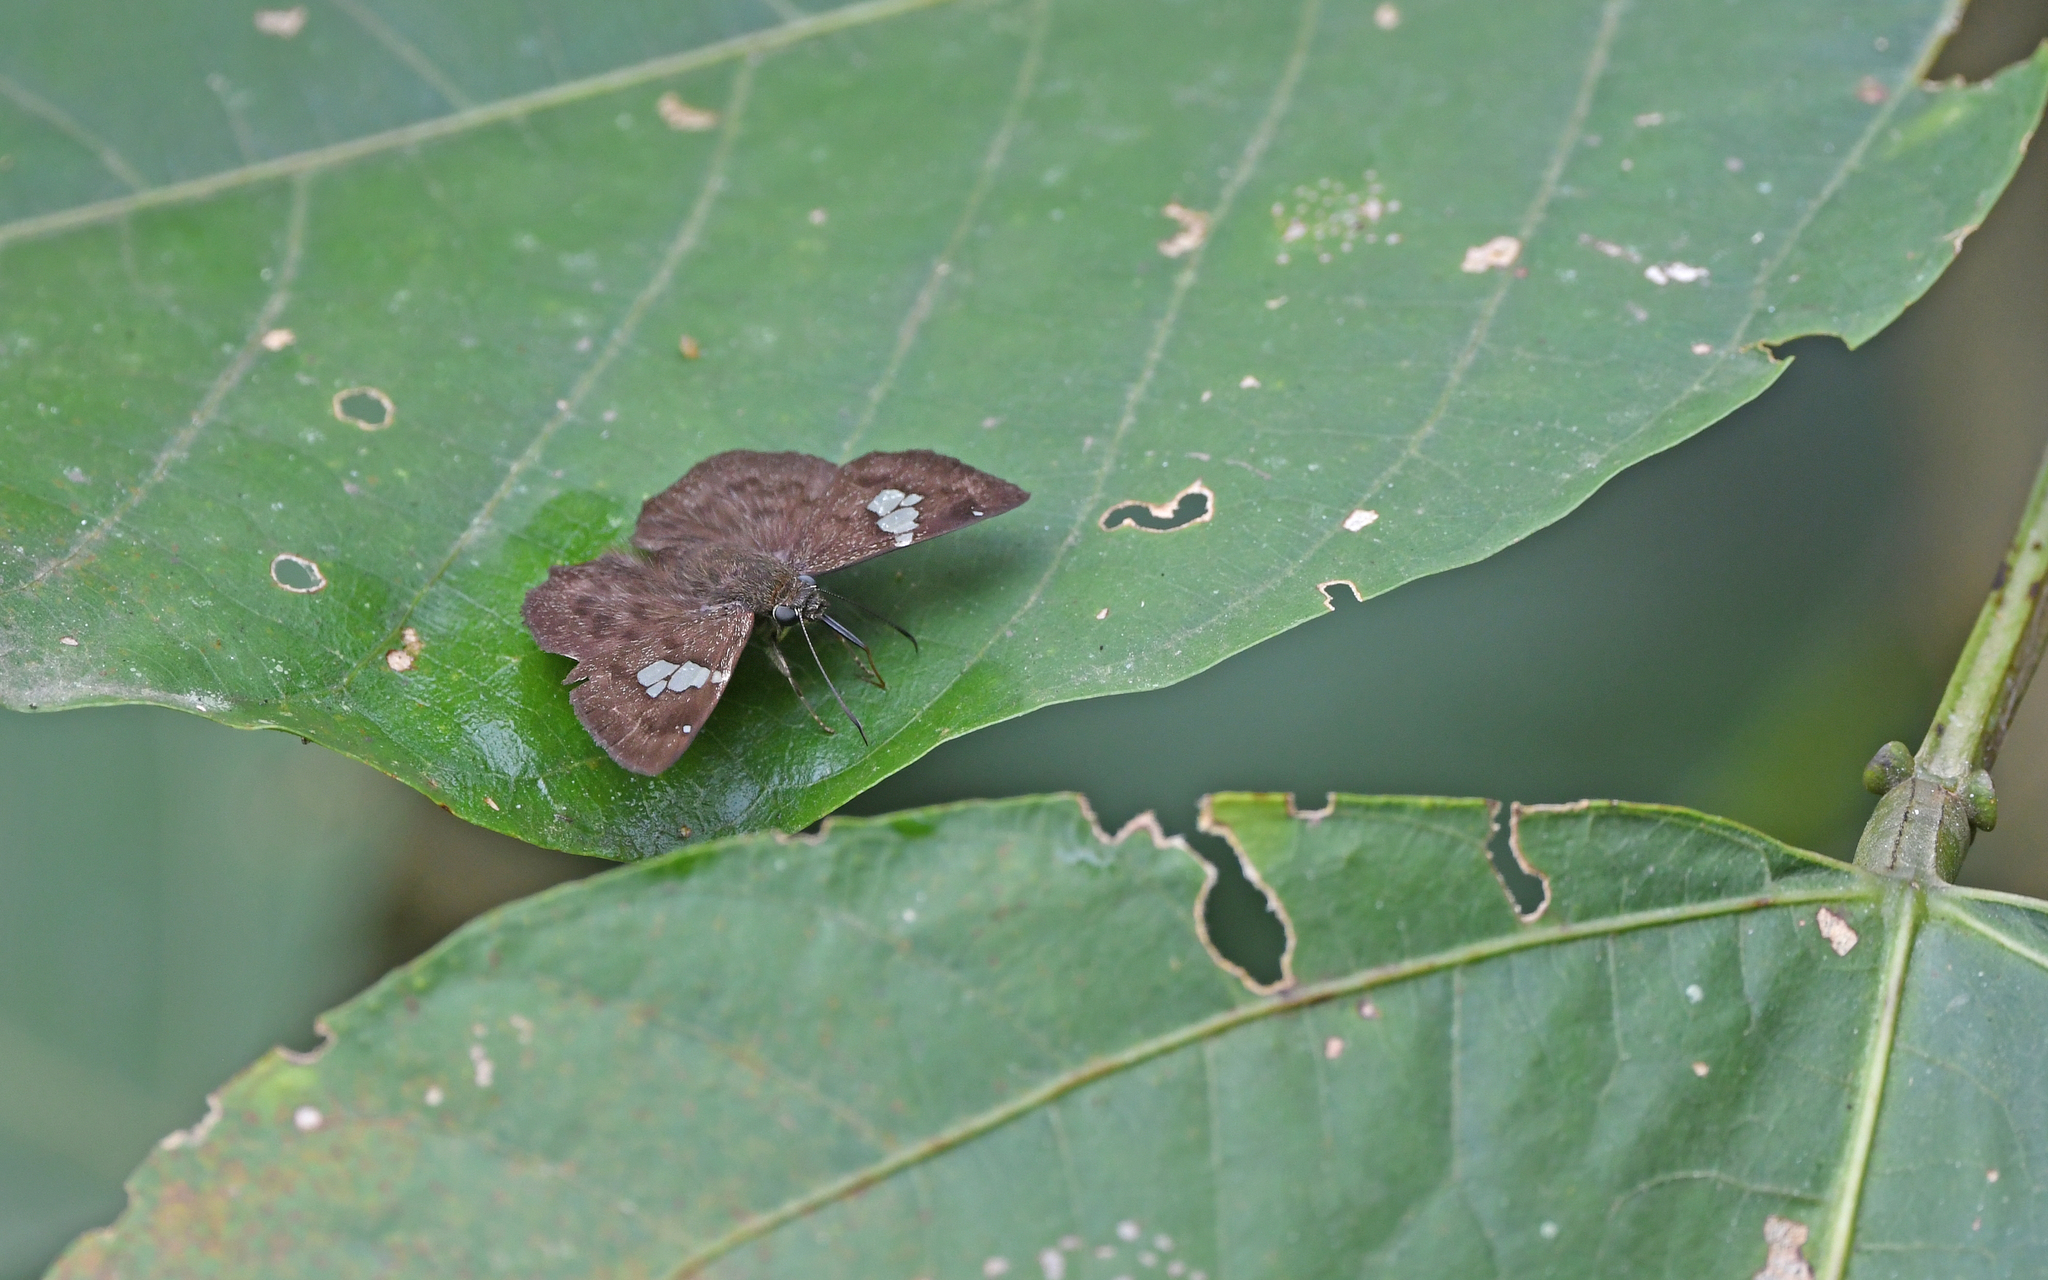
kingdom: Animalia
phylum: Arthropoda
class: Insecta
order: Lepidoptera
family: Hesperiidae
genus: Telemiades
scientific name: Telemiades amphion
